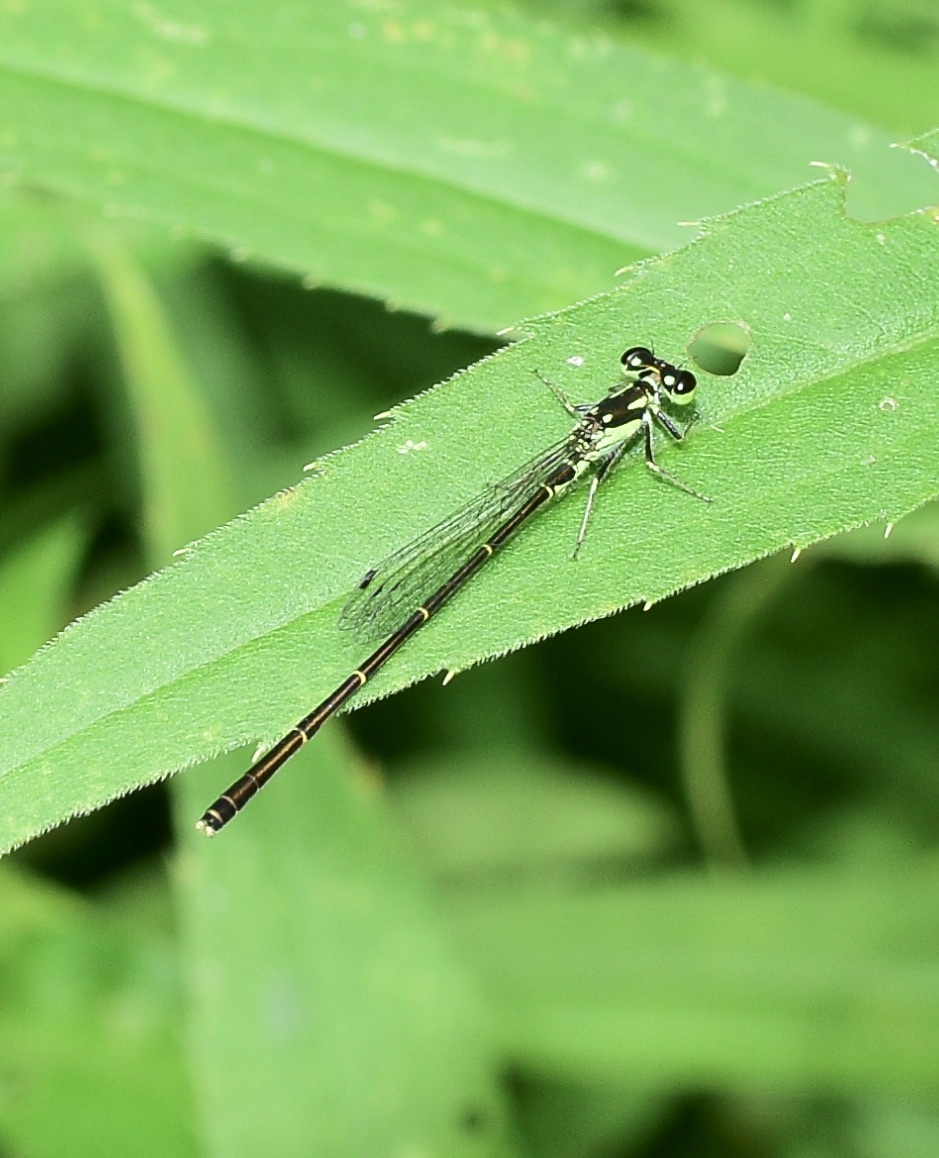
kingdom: Animalia
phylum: Arthropoda
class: Insecta
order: Odonata
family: Coenagrionidae
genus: Ischnura
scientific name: Ischnura posita
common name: Fragile forktail
